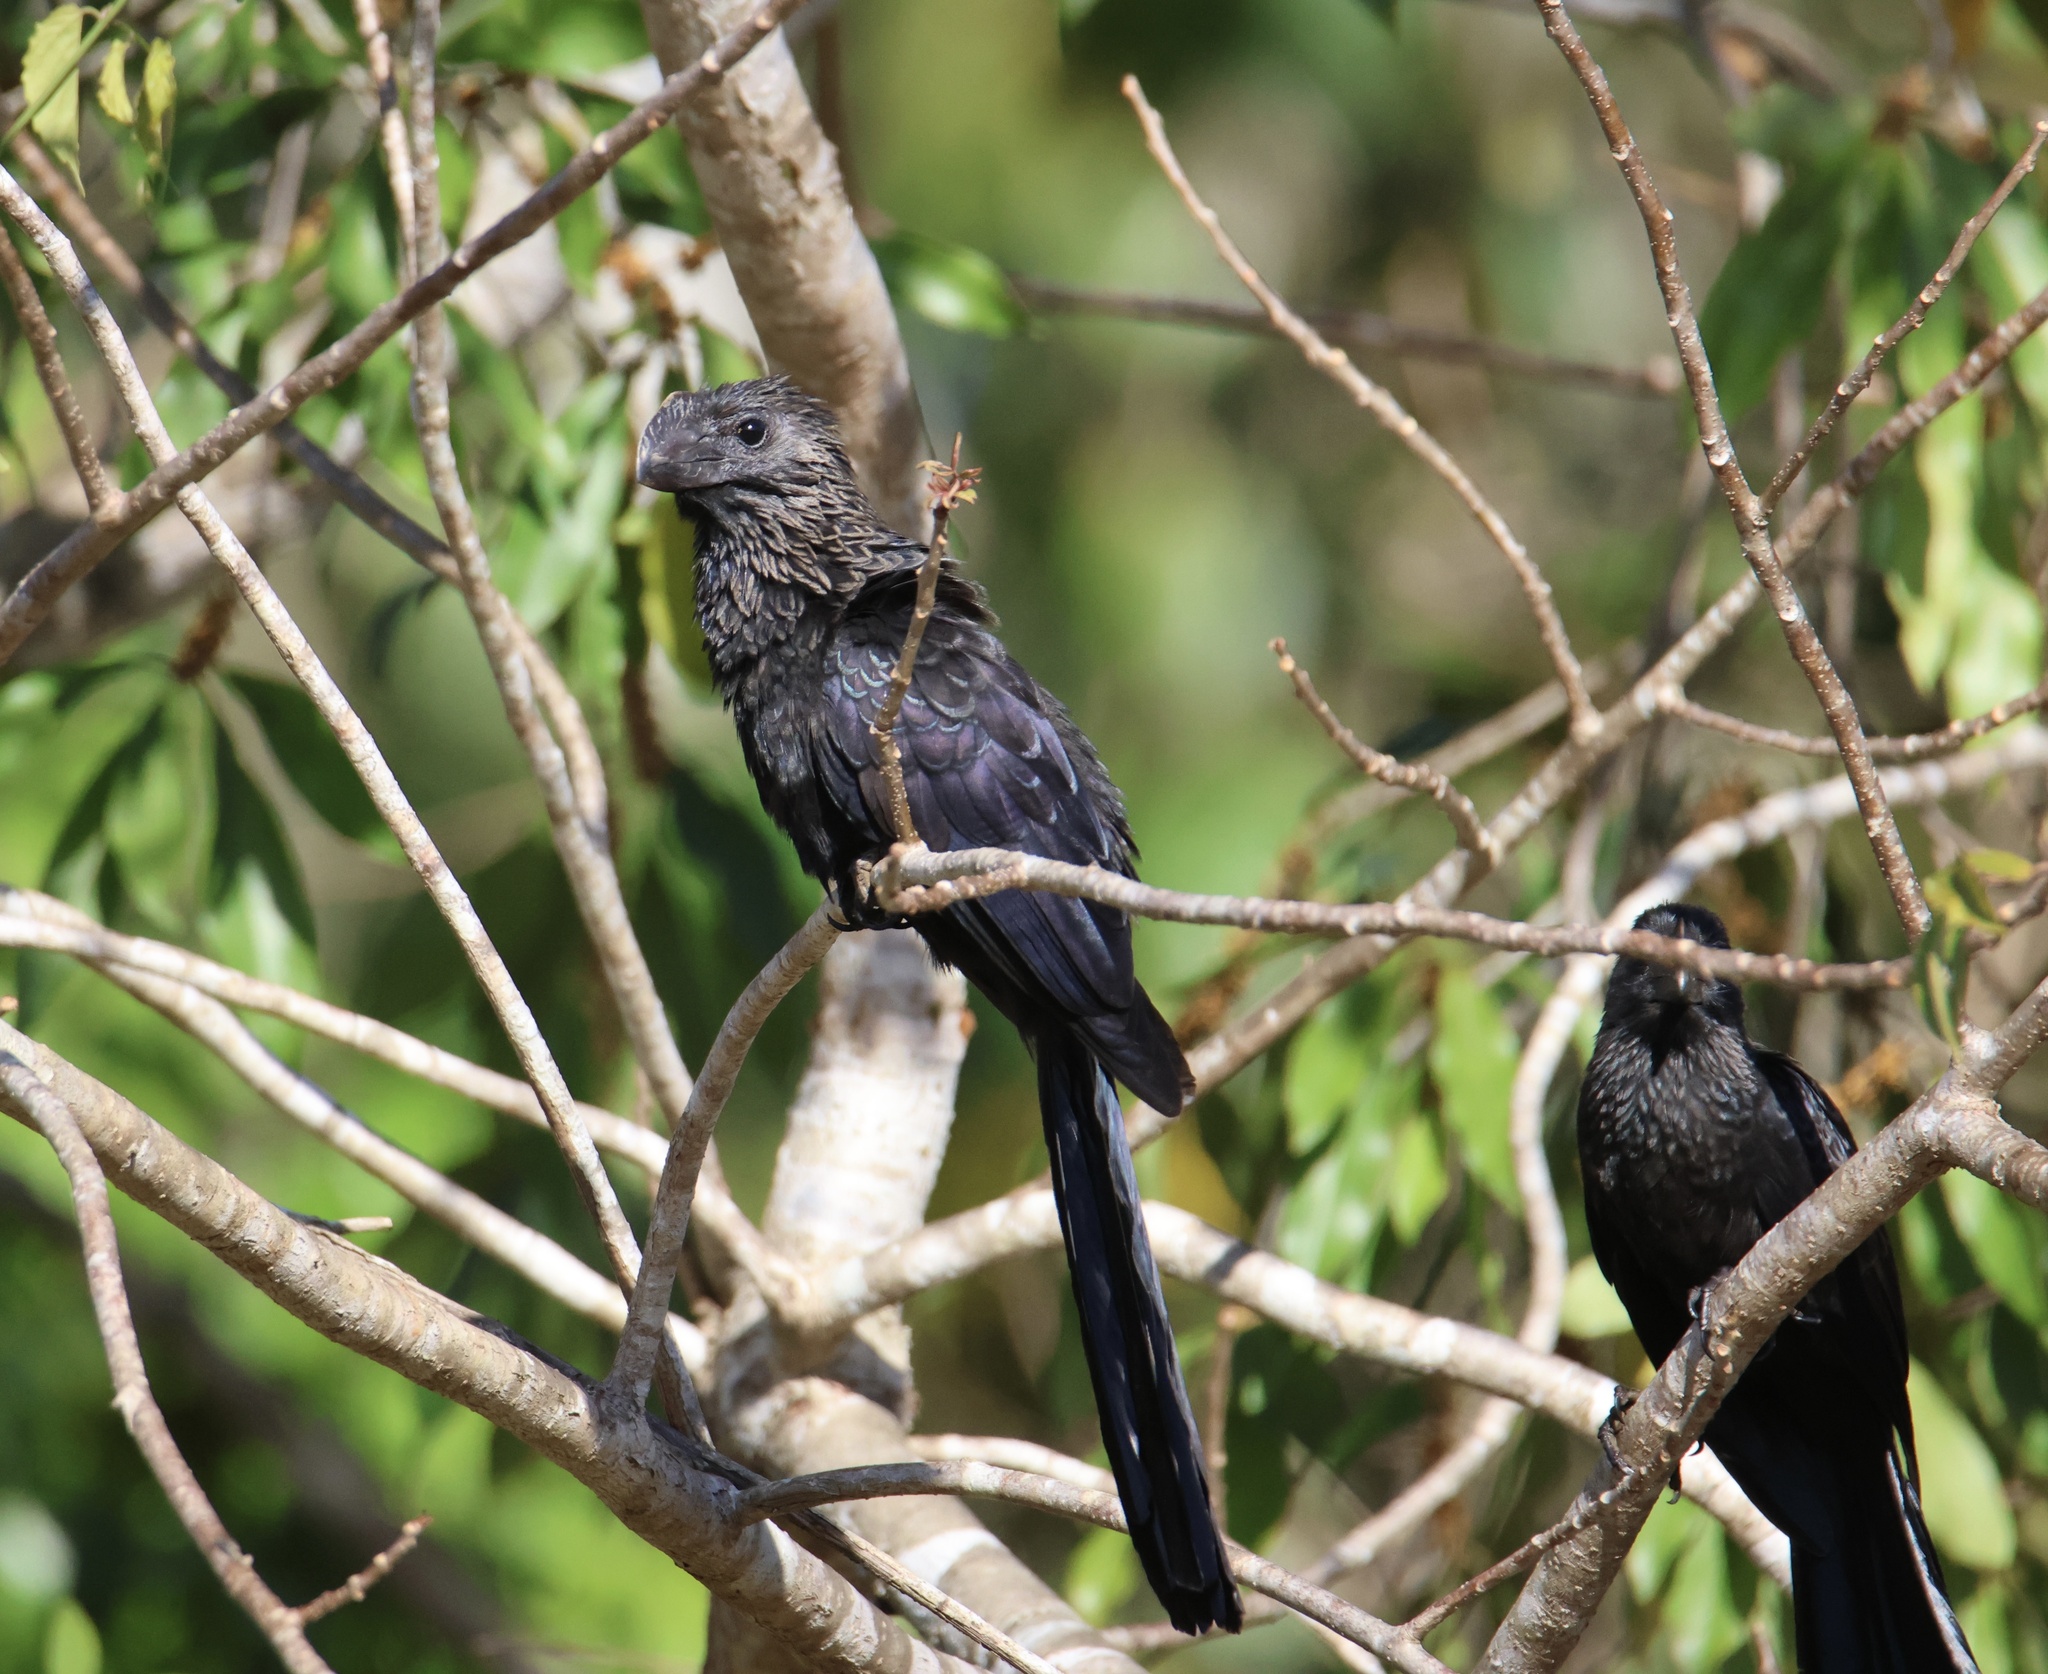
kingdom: Animalia
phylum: Chordata
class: Aves
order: Cuculiformes
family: Cuculidae
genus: Crotophaga
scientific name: Crotophaga ani
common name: Smooth-billed ani
